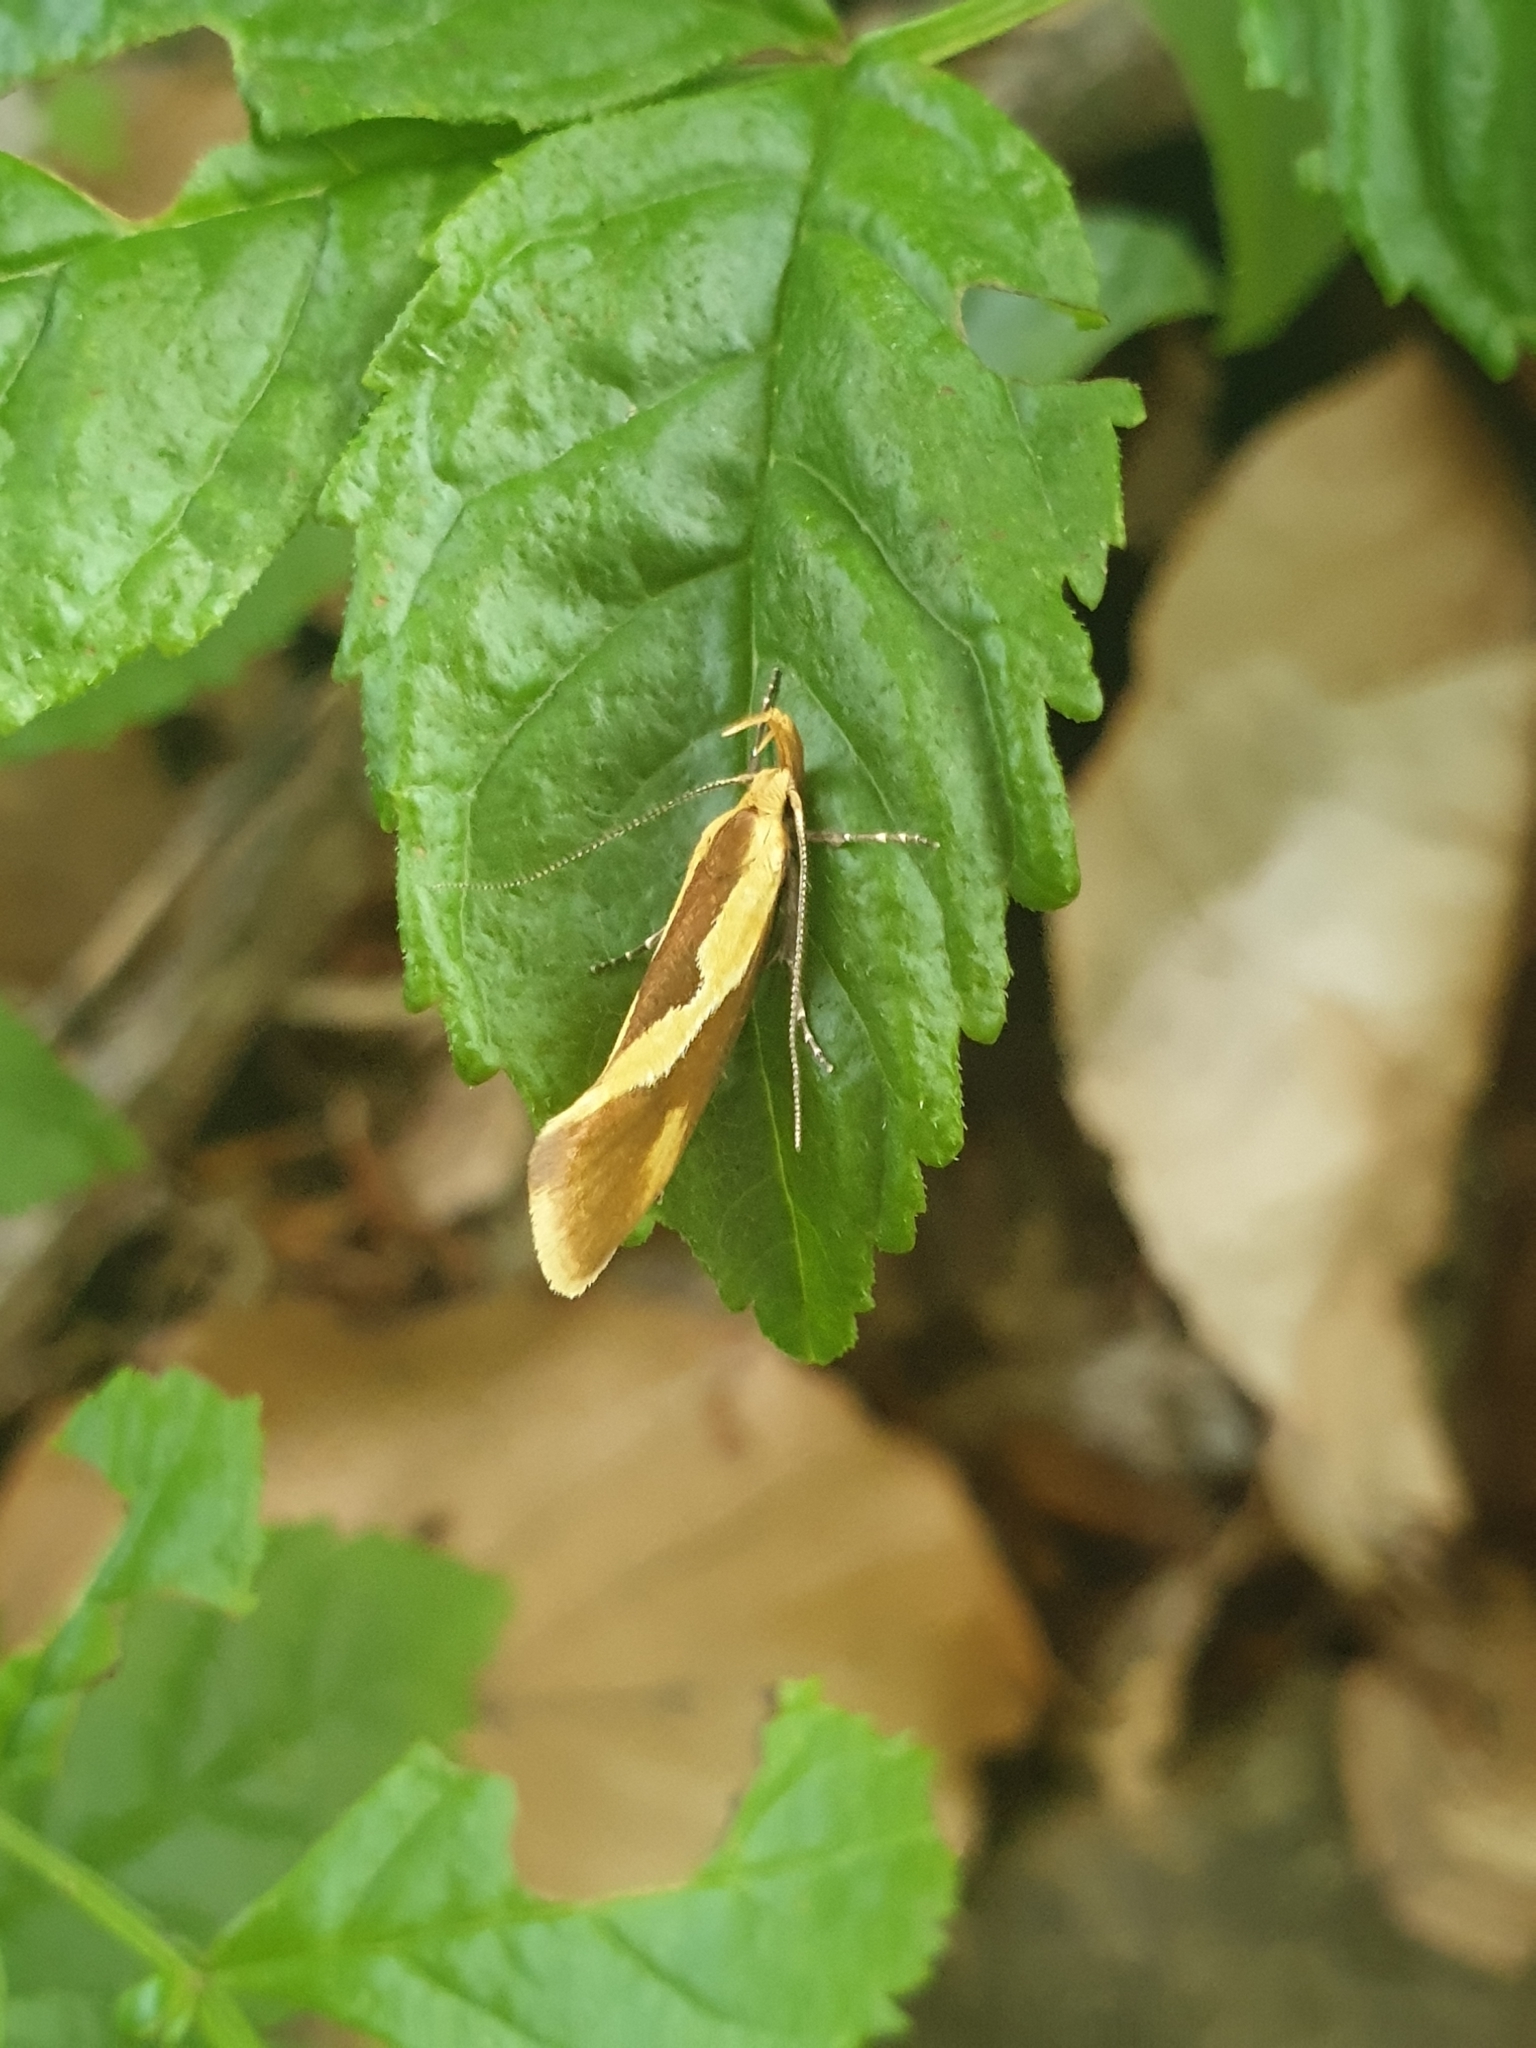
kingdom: Animalia
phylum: Arthropoda
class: Insecta
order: Lepidoptera
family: Oecophoridae
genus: Harpella
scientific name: Harpella forficella
